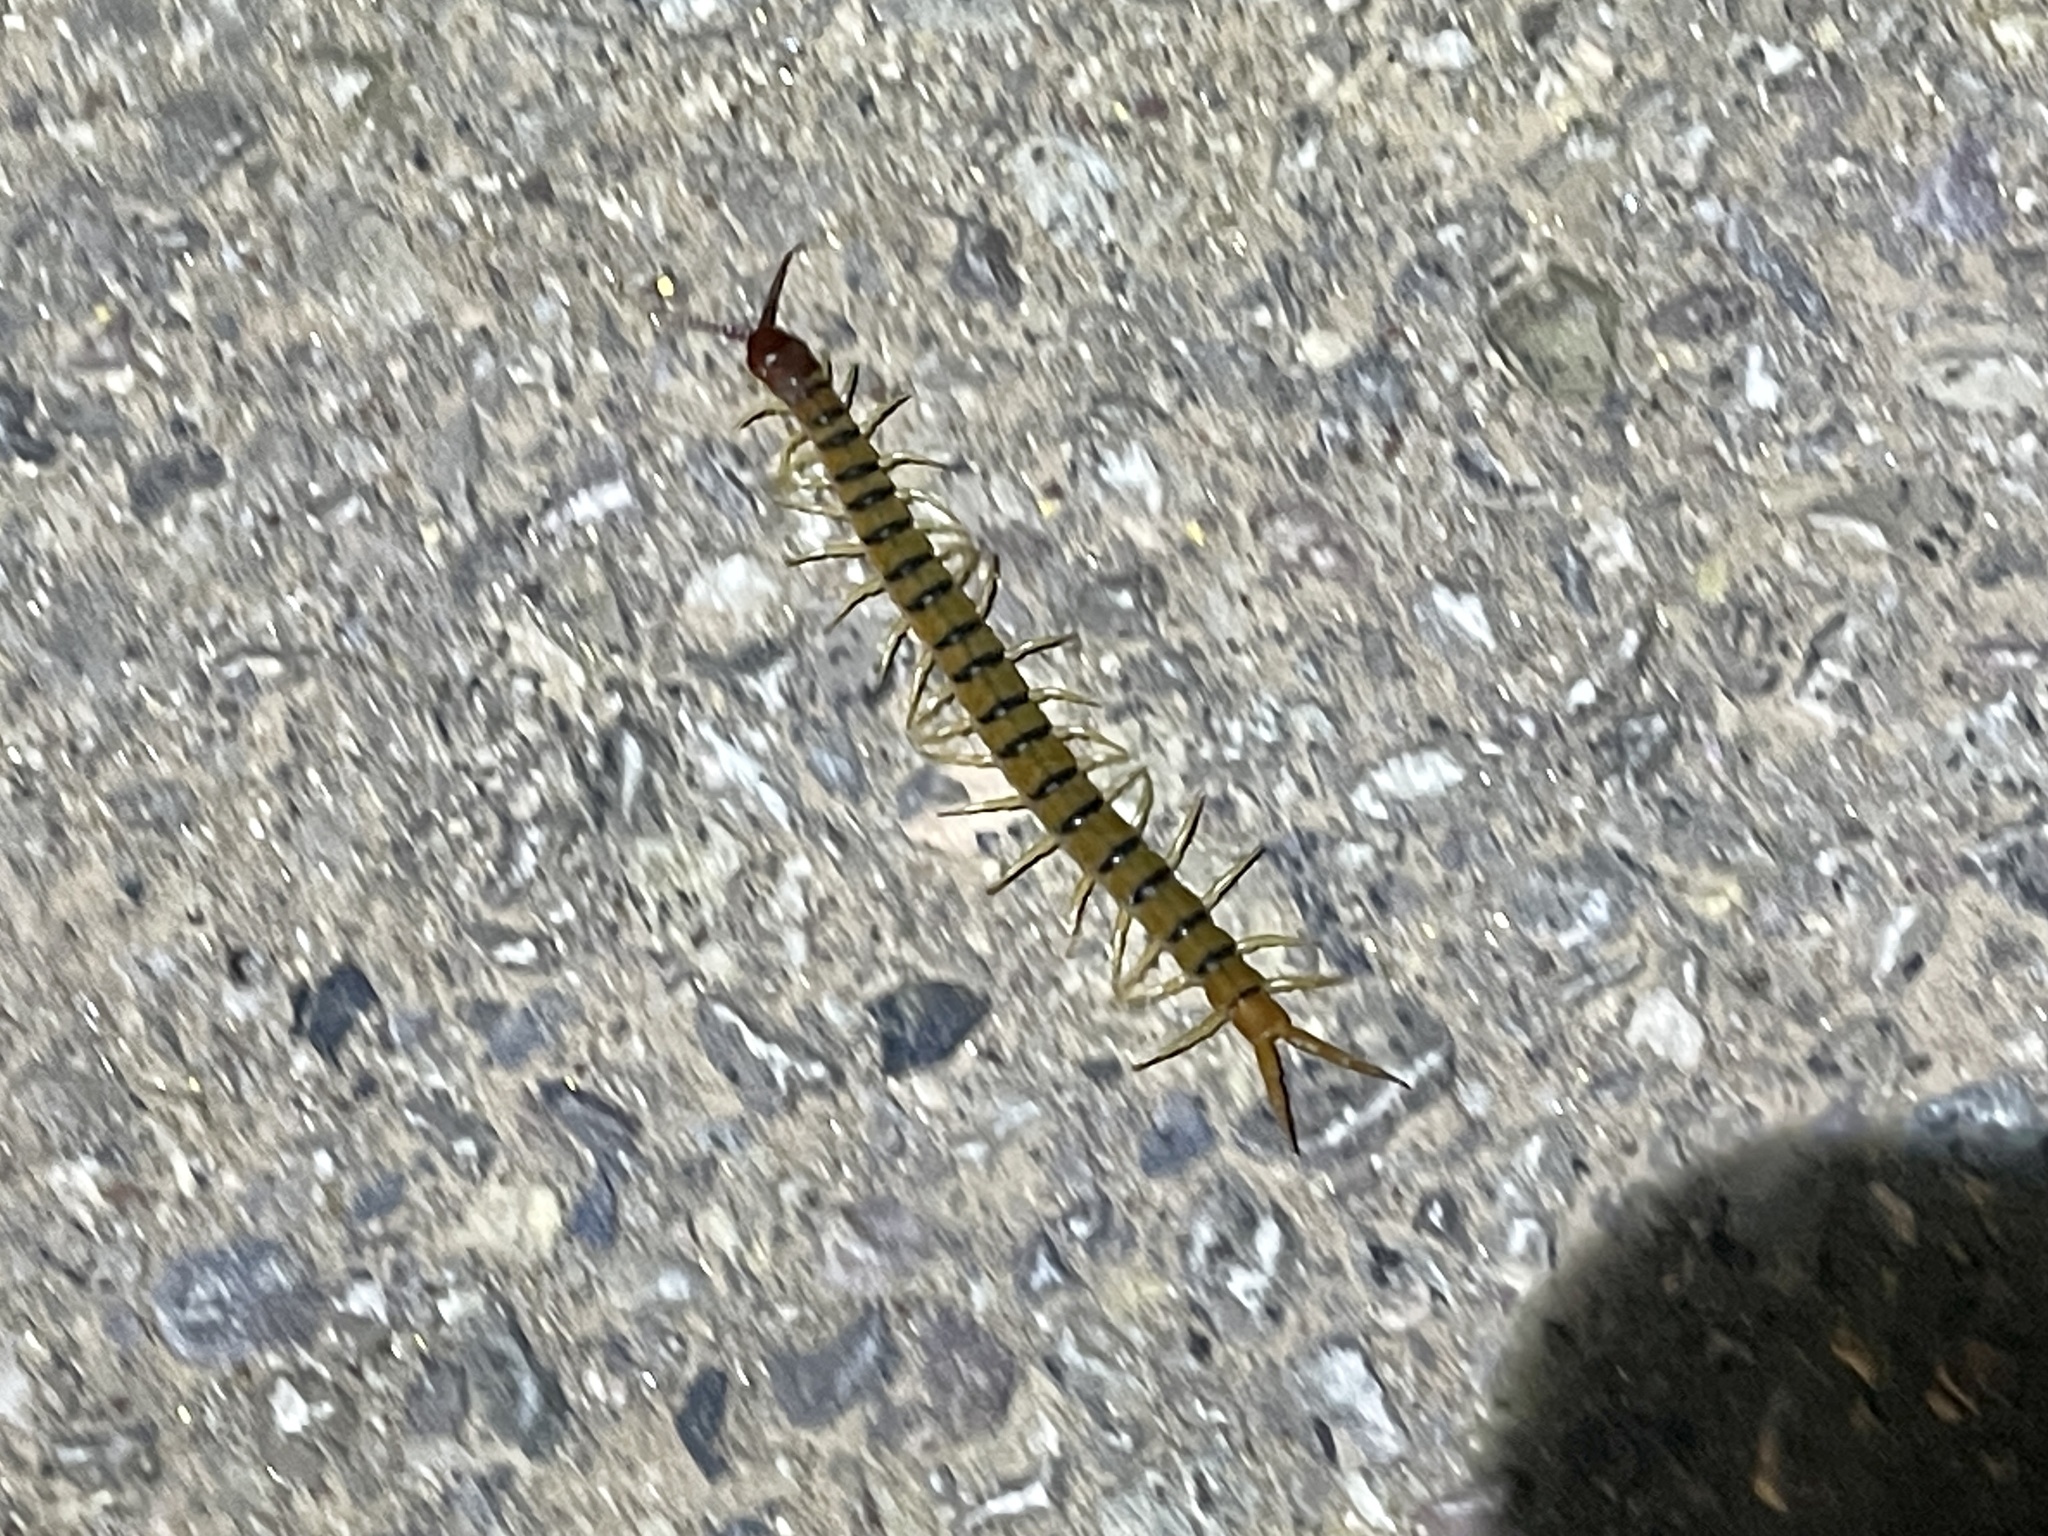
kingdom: Animalia
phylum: Arthropoda
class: Chilopoda
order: Scolopendromorpha
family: Scolopendridae
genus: Scolopendra
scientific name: Scolopendra polymorpha
